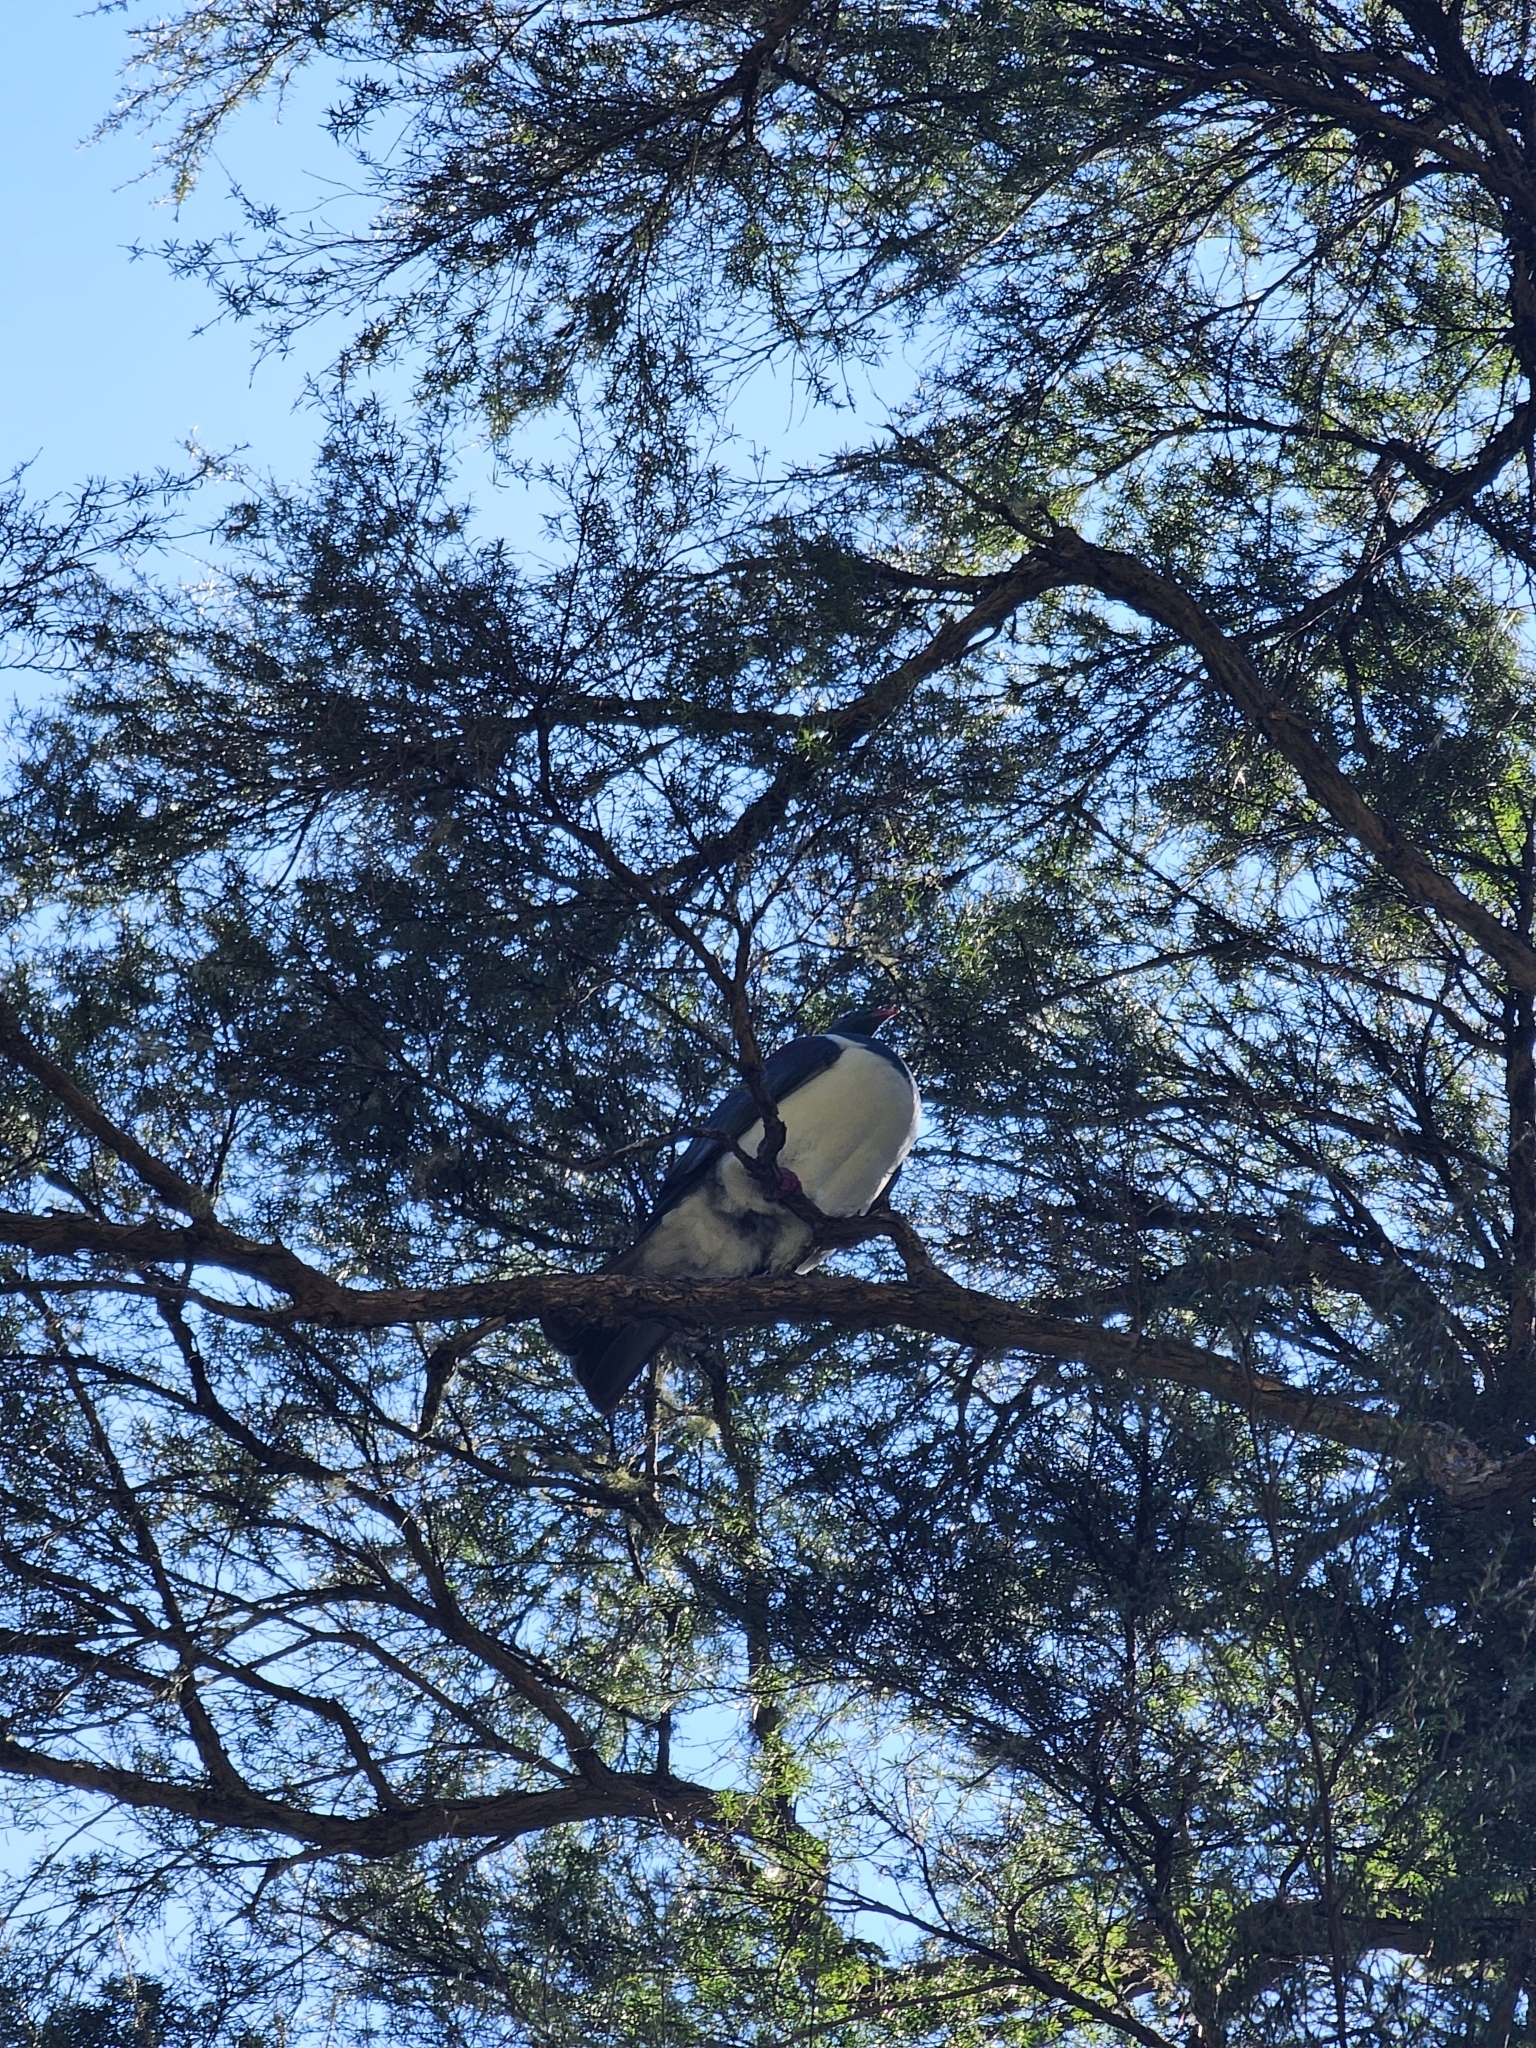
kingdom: Animalia
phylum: Chordata
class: Aves
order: Columbiformes
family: Columbidae
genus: Hemiphaga
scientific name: Hemiphaga novaeseelandiae
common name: New zealand pigeon
